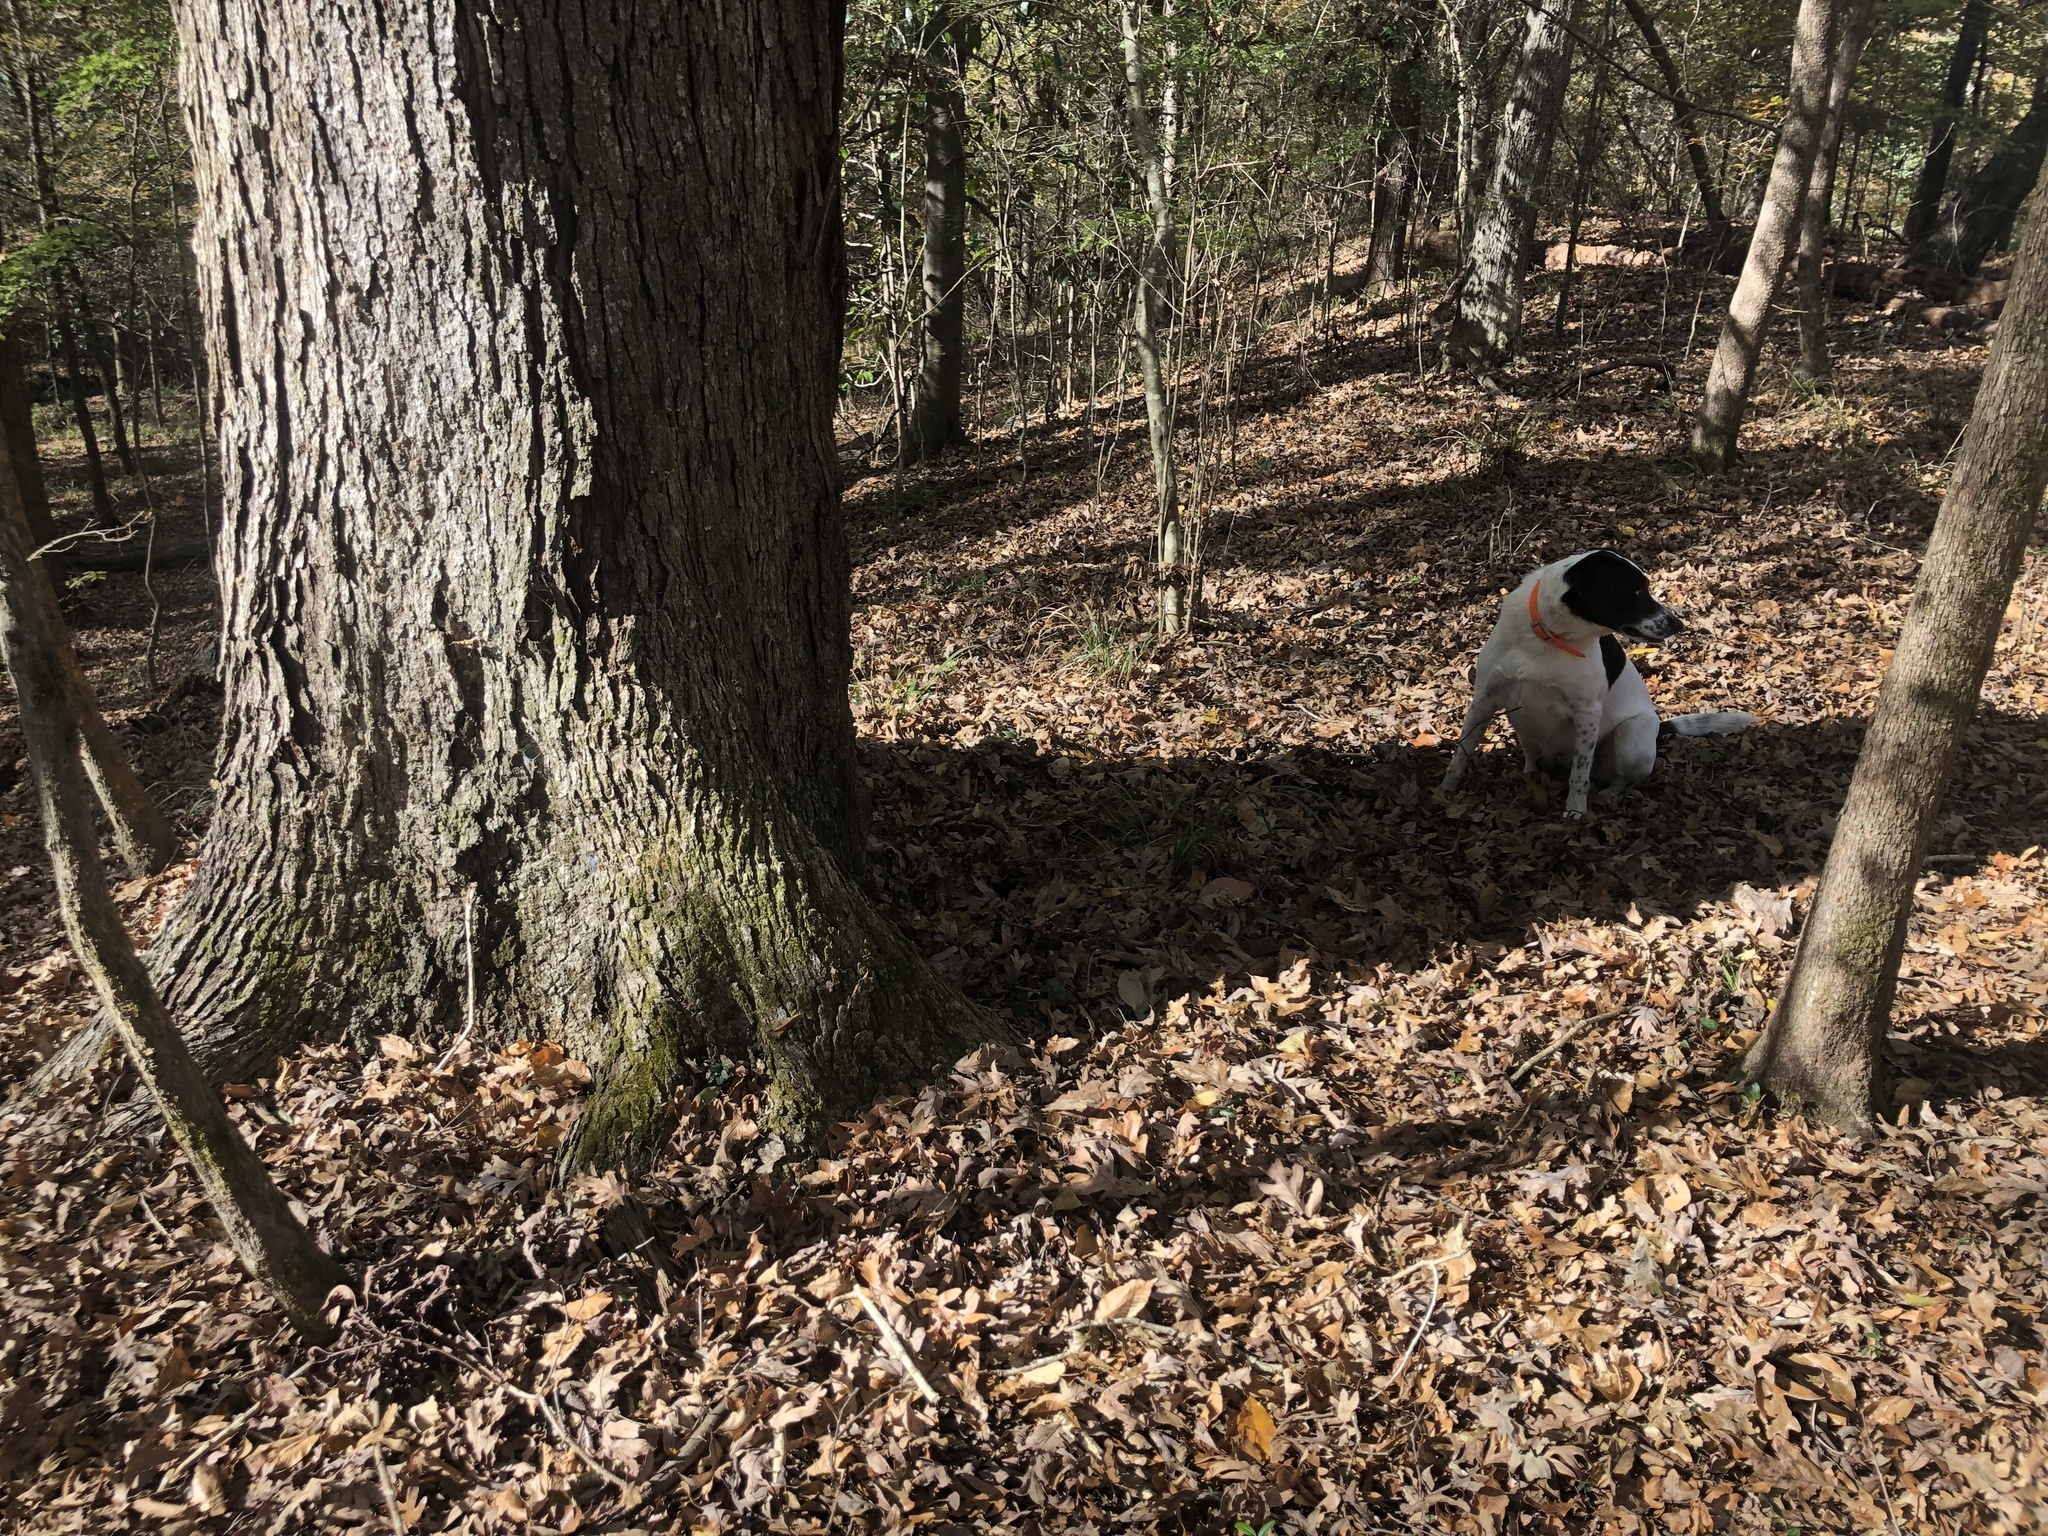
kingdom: Plantae
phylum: Tracheophyta
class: Magnoliopsida
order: Fagales
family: Fagaceae
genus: Quercus
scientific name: Quercus alba
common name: White oak
